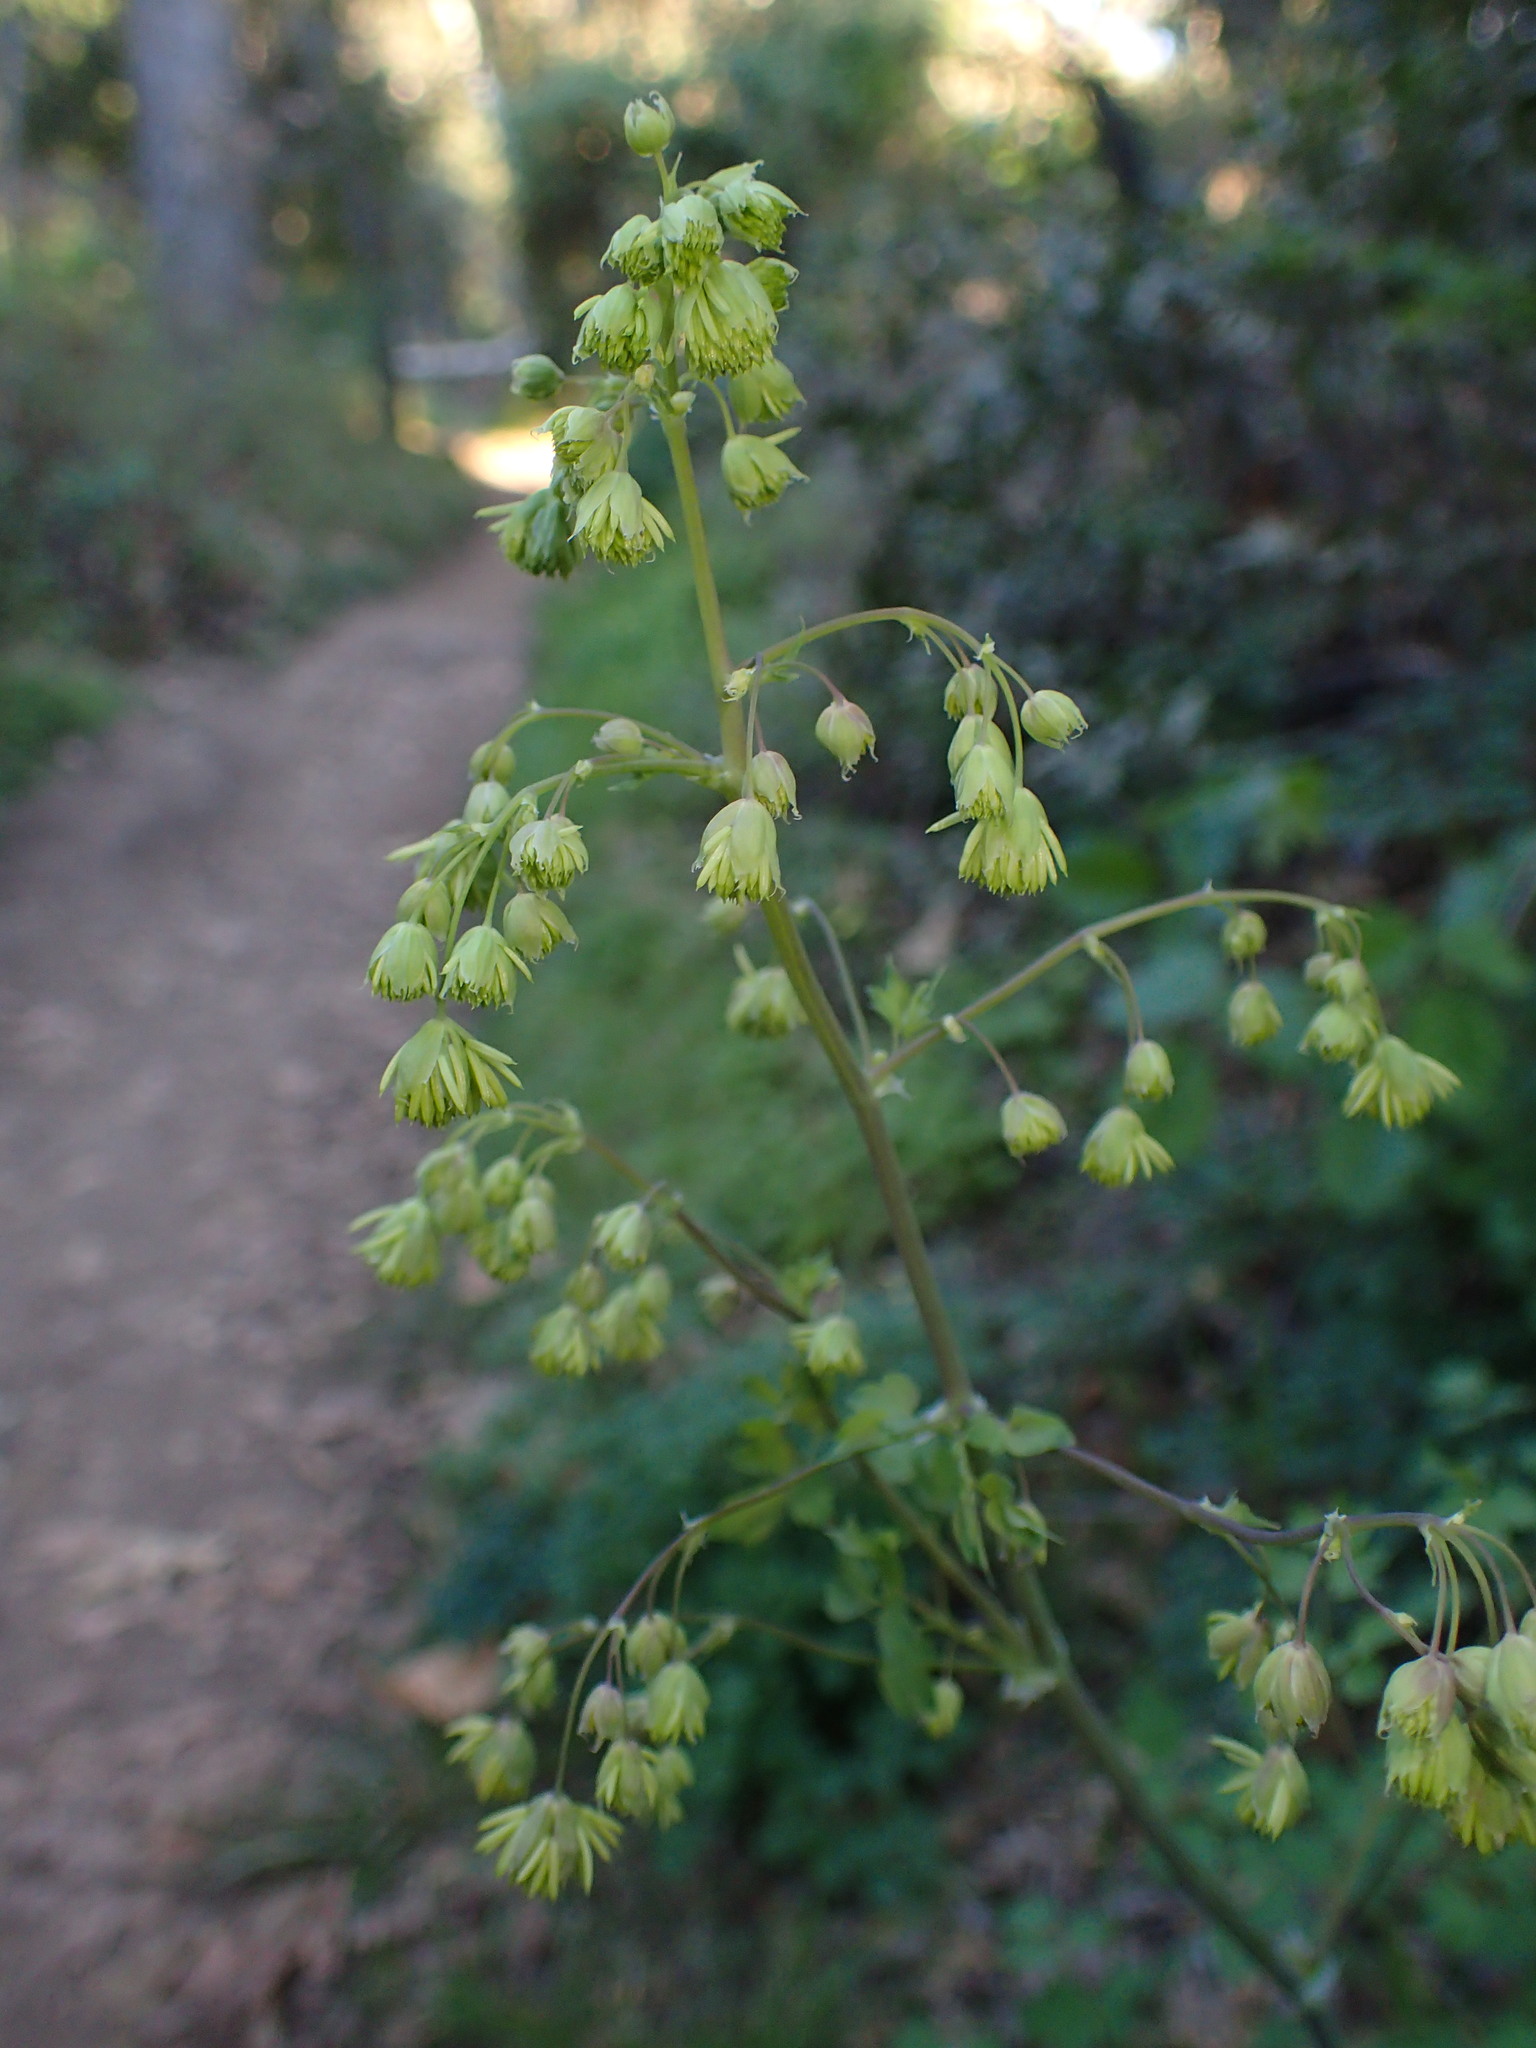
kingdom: Plantae
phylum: Tracheophyta
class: Magnoliopsida
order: Ranunculales
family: Ranunculaceae
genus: Thalictrum
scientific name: Thalictrum fendleri
